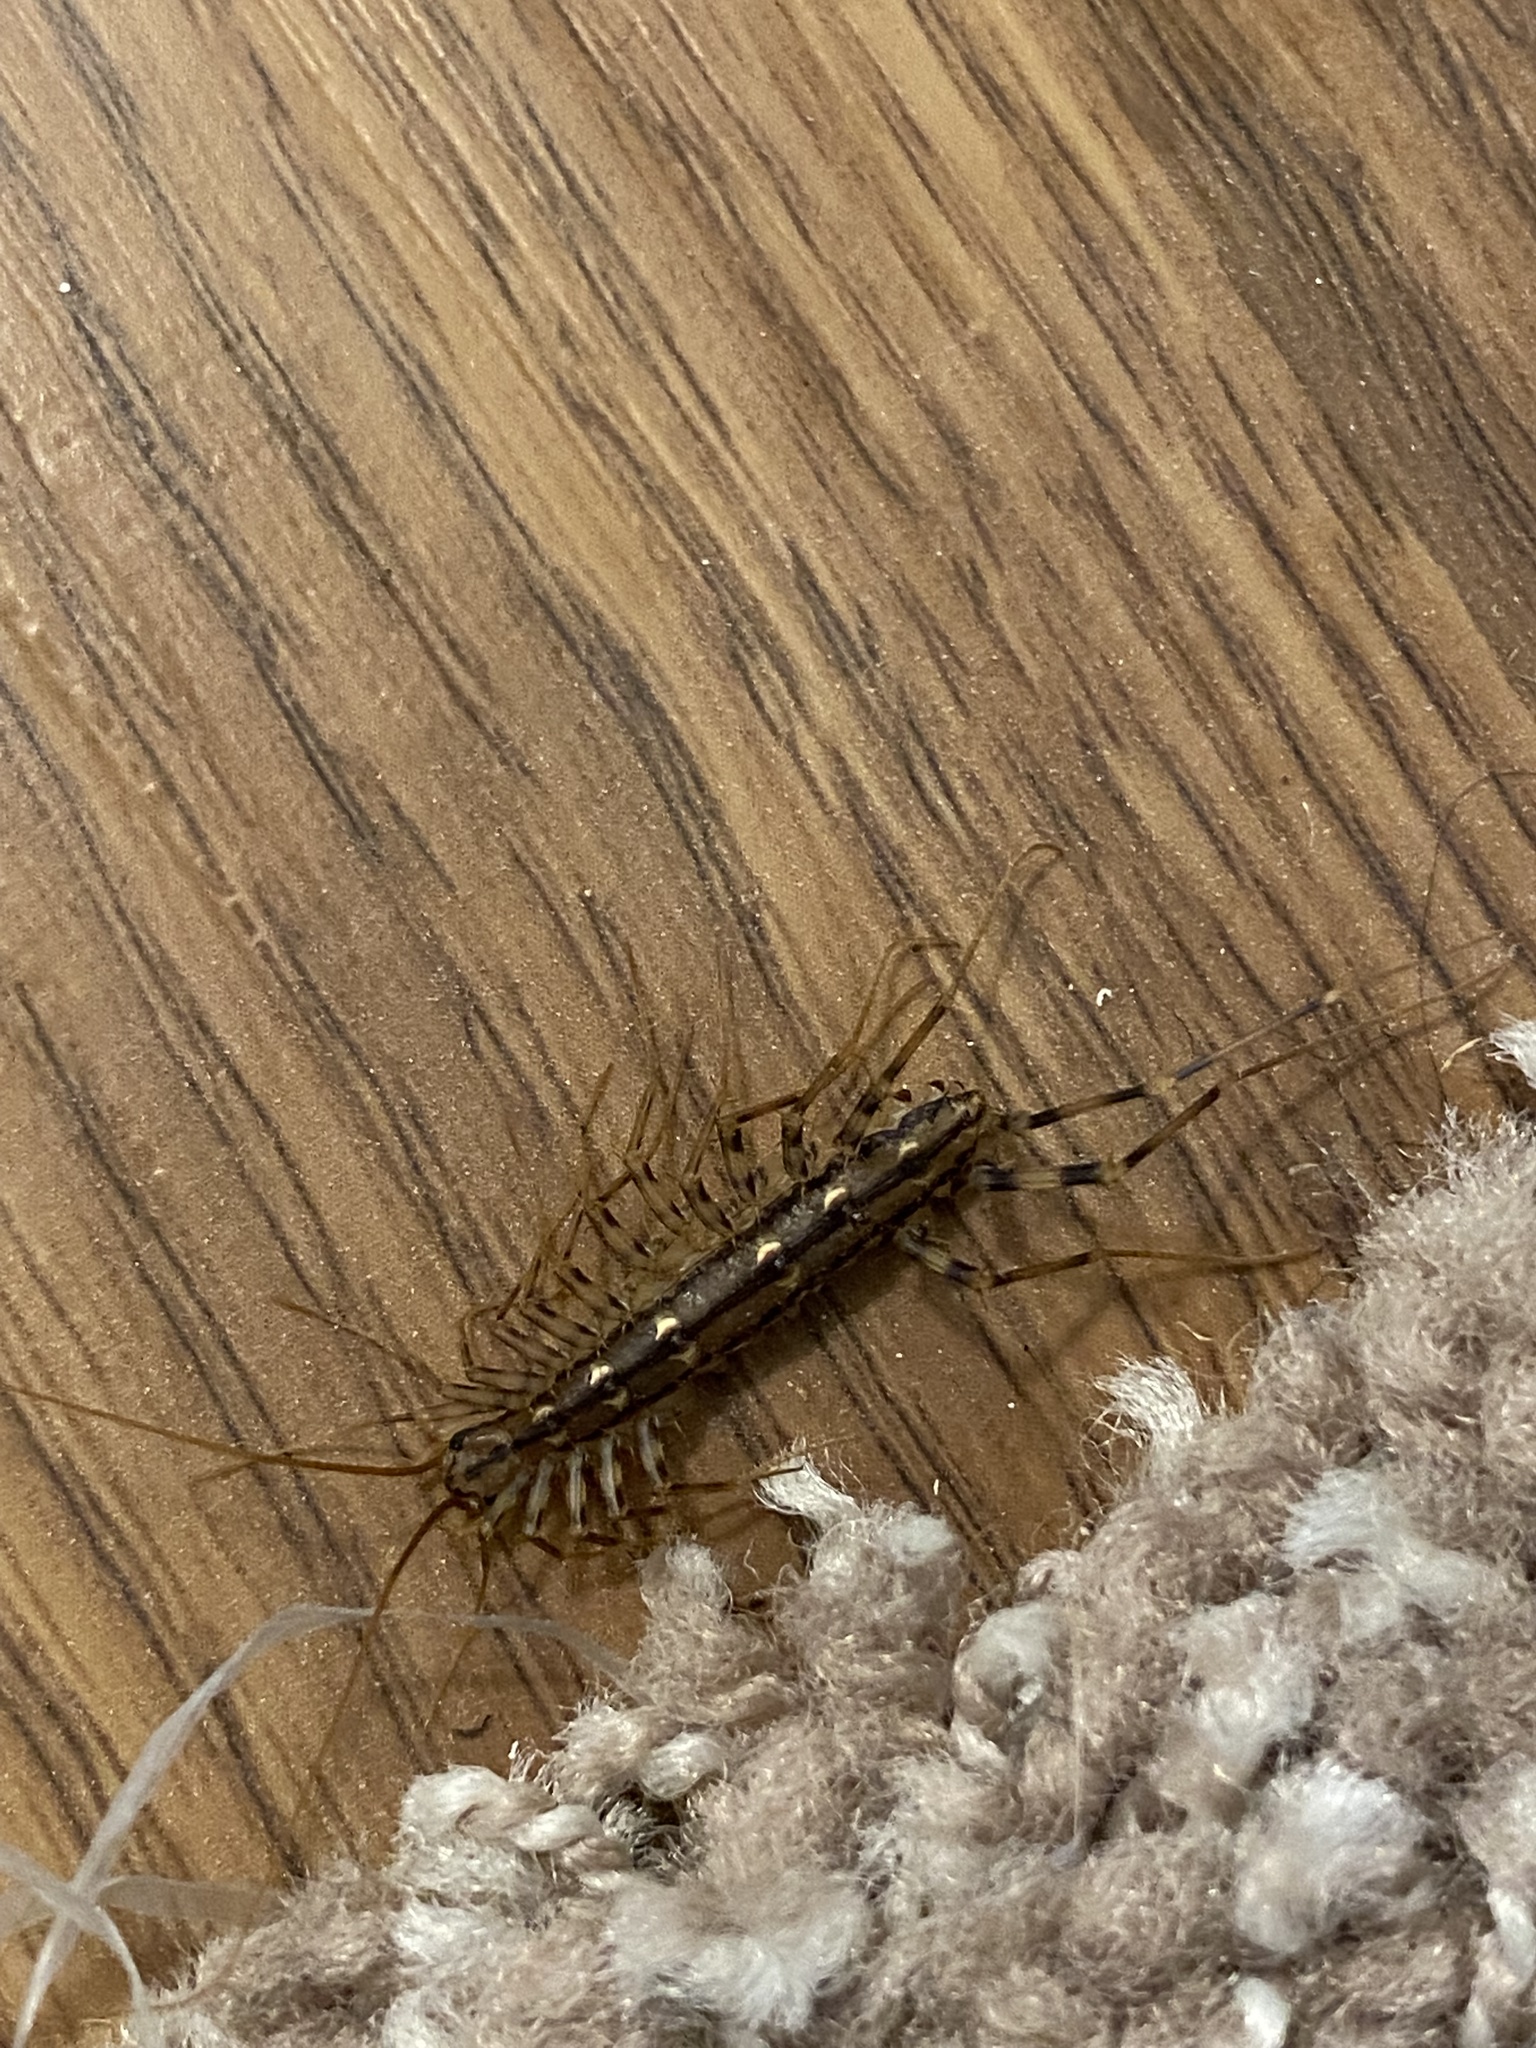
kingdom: Animalia
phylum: Arthropoda
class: Chilopoda
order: Scutigeromorpha
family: Scutigeridae
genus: Scutigera
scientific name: Scutigera coleoptrata
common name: House centipede
